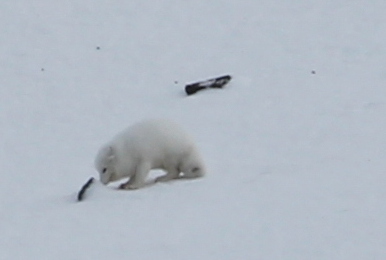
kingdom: Animalia
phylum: Chordata
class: Mammalia
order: Carnivora
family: Canidae
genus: Vulpes
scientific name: Vulpes lagopus
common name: Arctic fox
